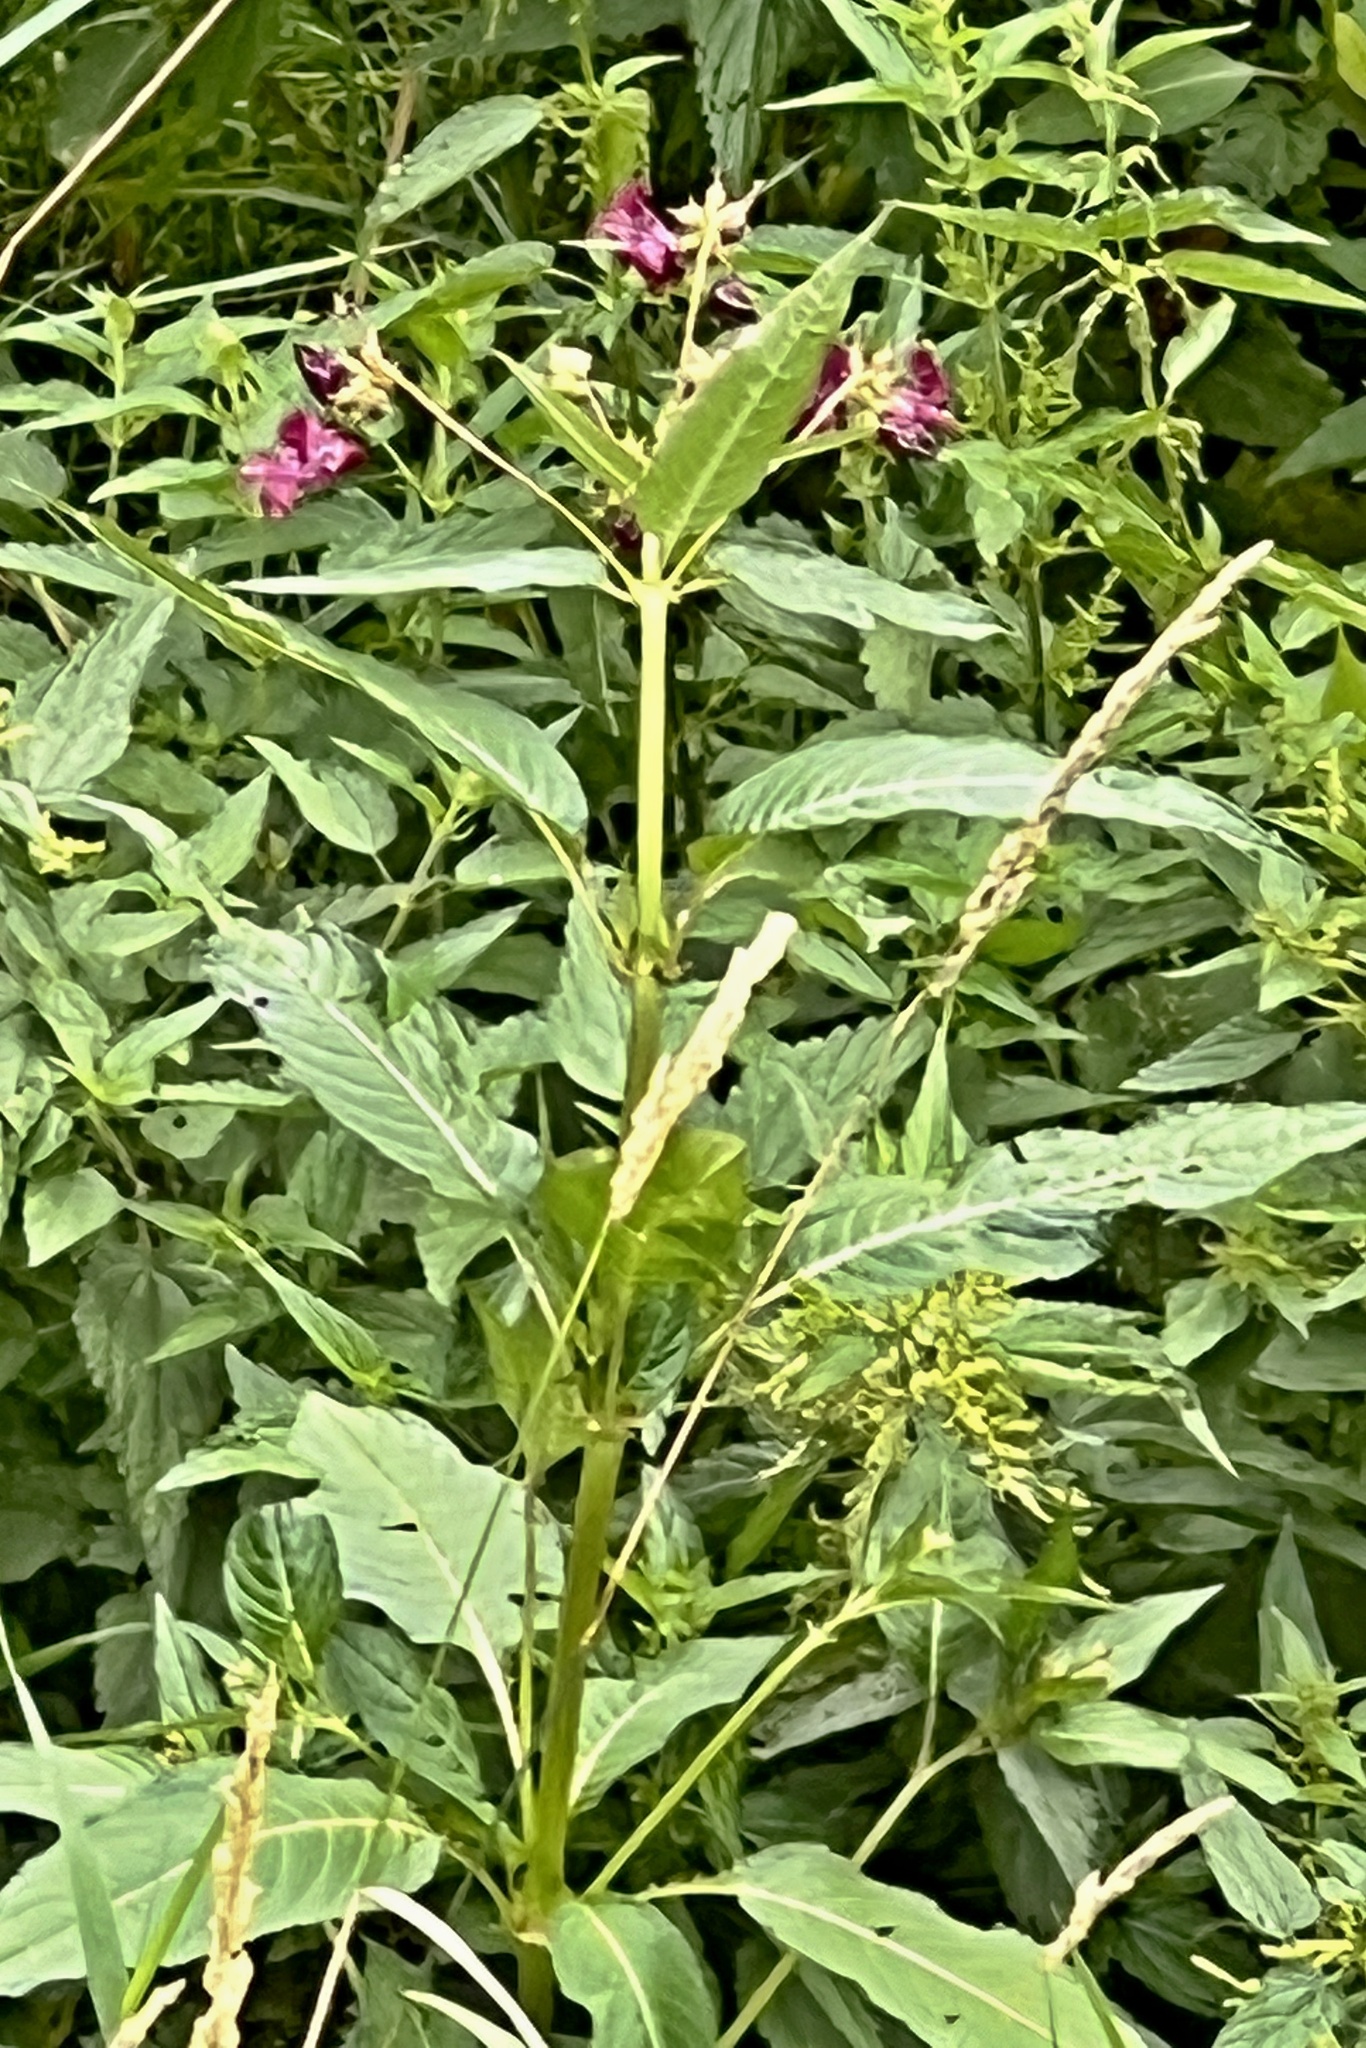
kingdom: Plantae
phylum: Tracheophyta
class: Magnoliopsida
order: Ericales
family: Balsaminaceae
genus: Impatiens
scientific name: Impatiens glandulifera
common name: Himalayan balsam
